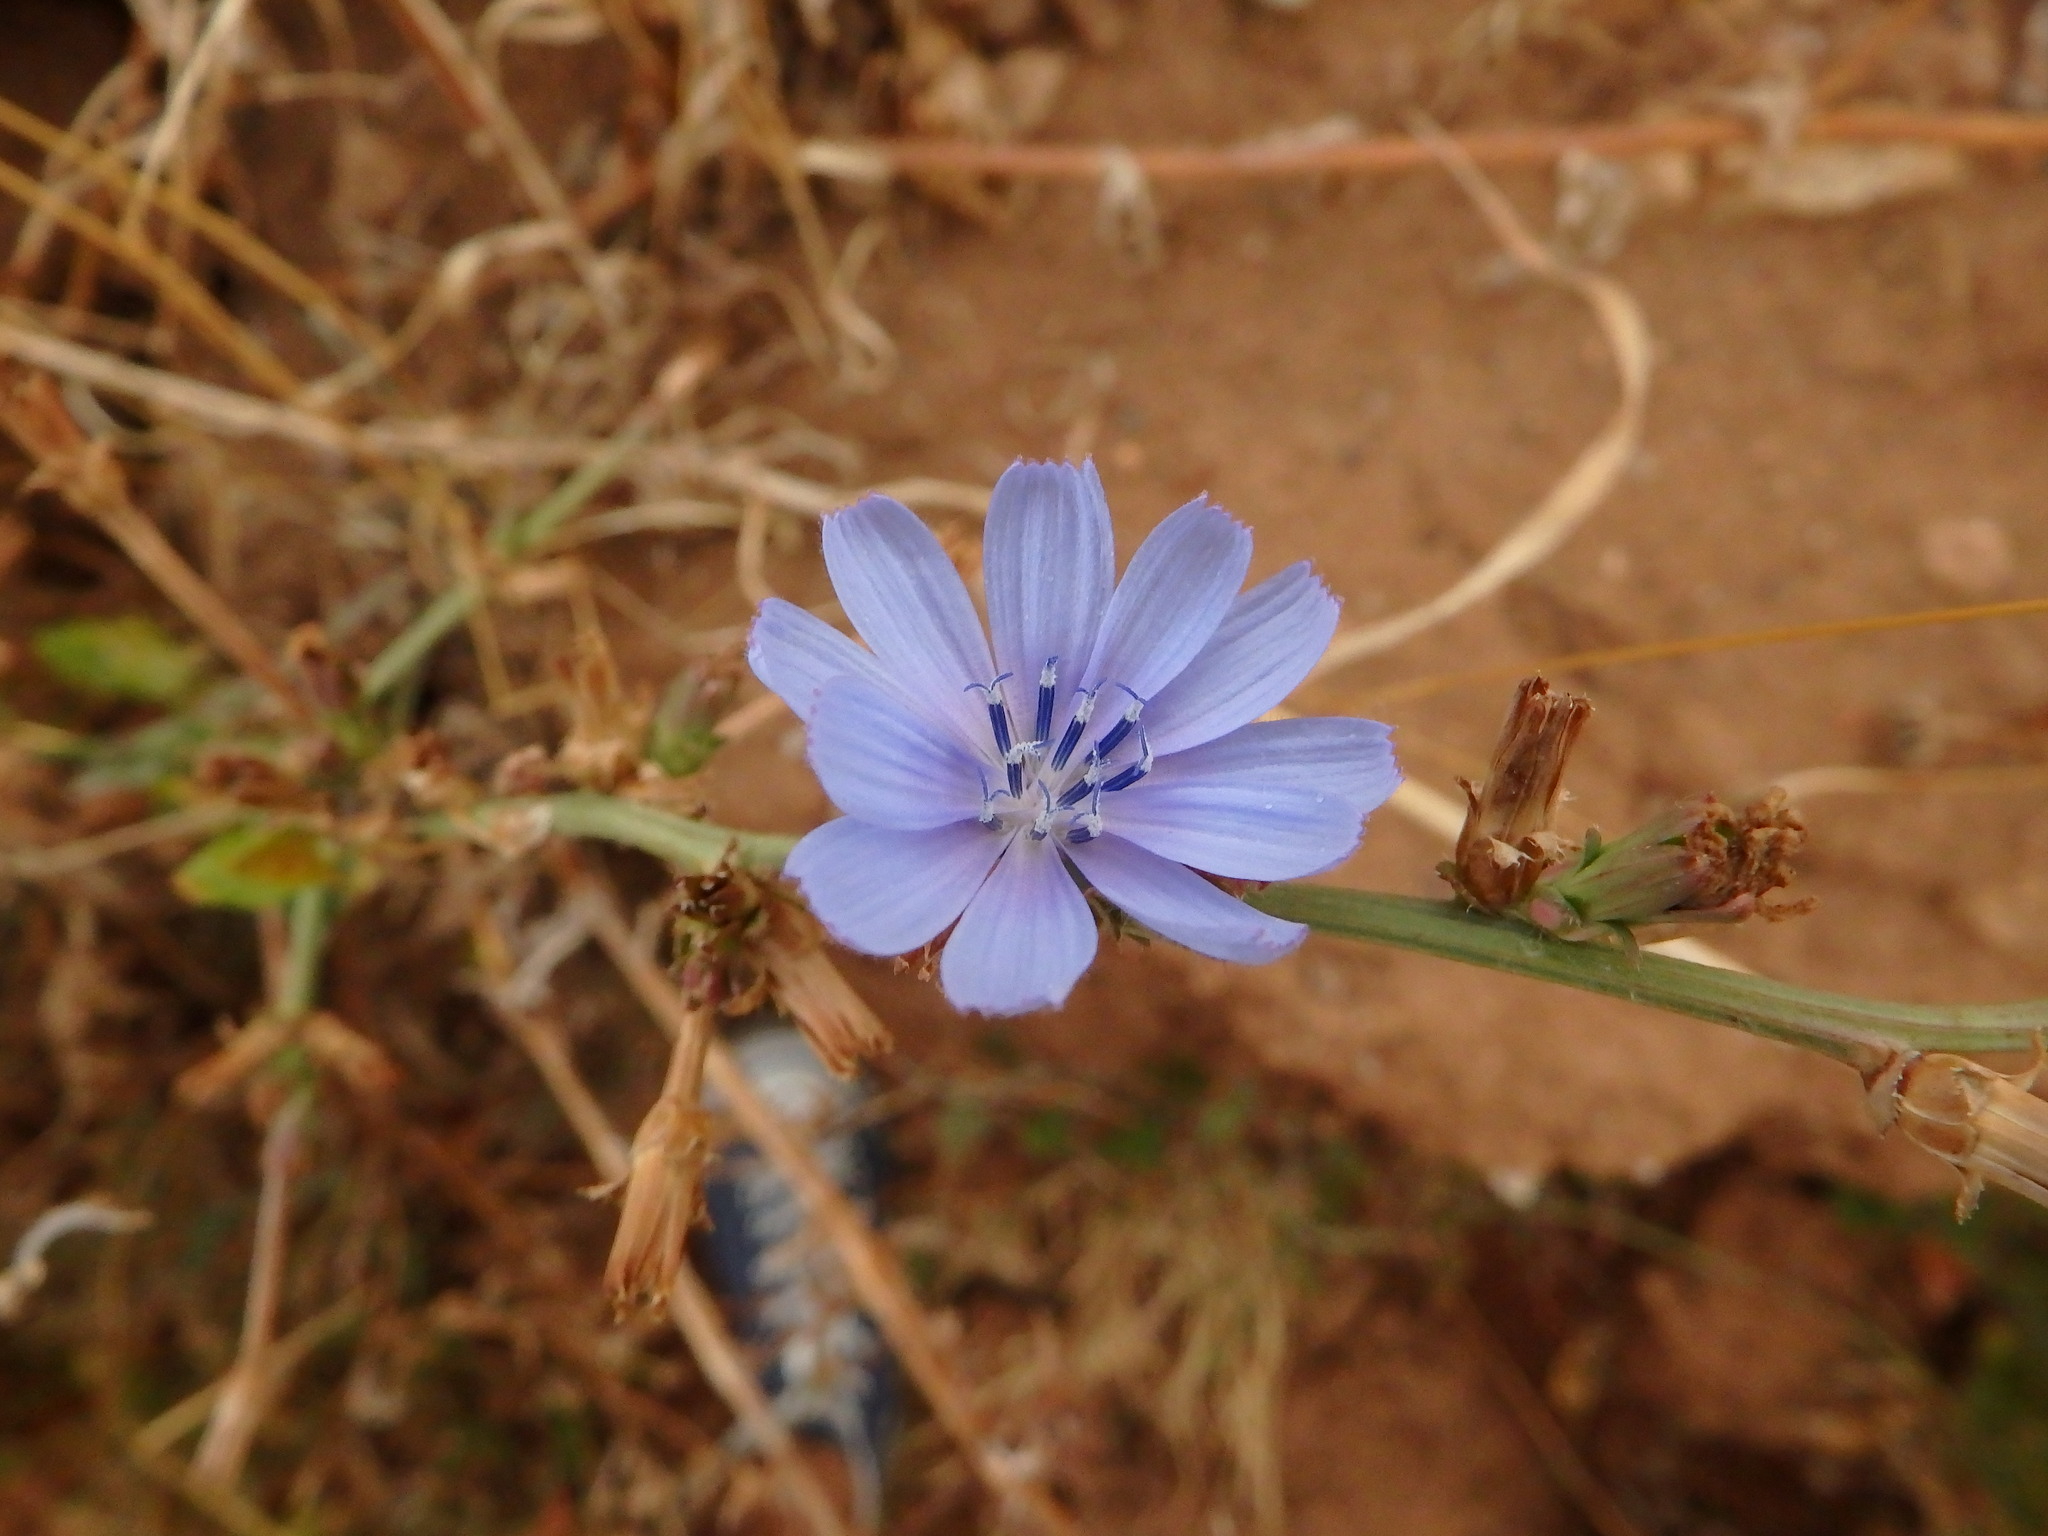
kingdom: Plantae
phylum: Tracheophyta
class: Magnoliopsida
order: Asterales
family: Asteraceae
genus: Cichorium
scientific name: Cichorium intybus
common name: Chicory
